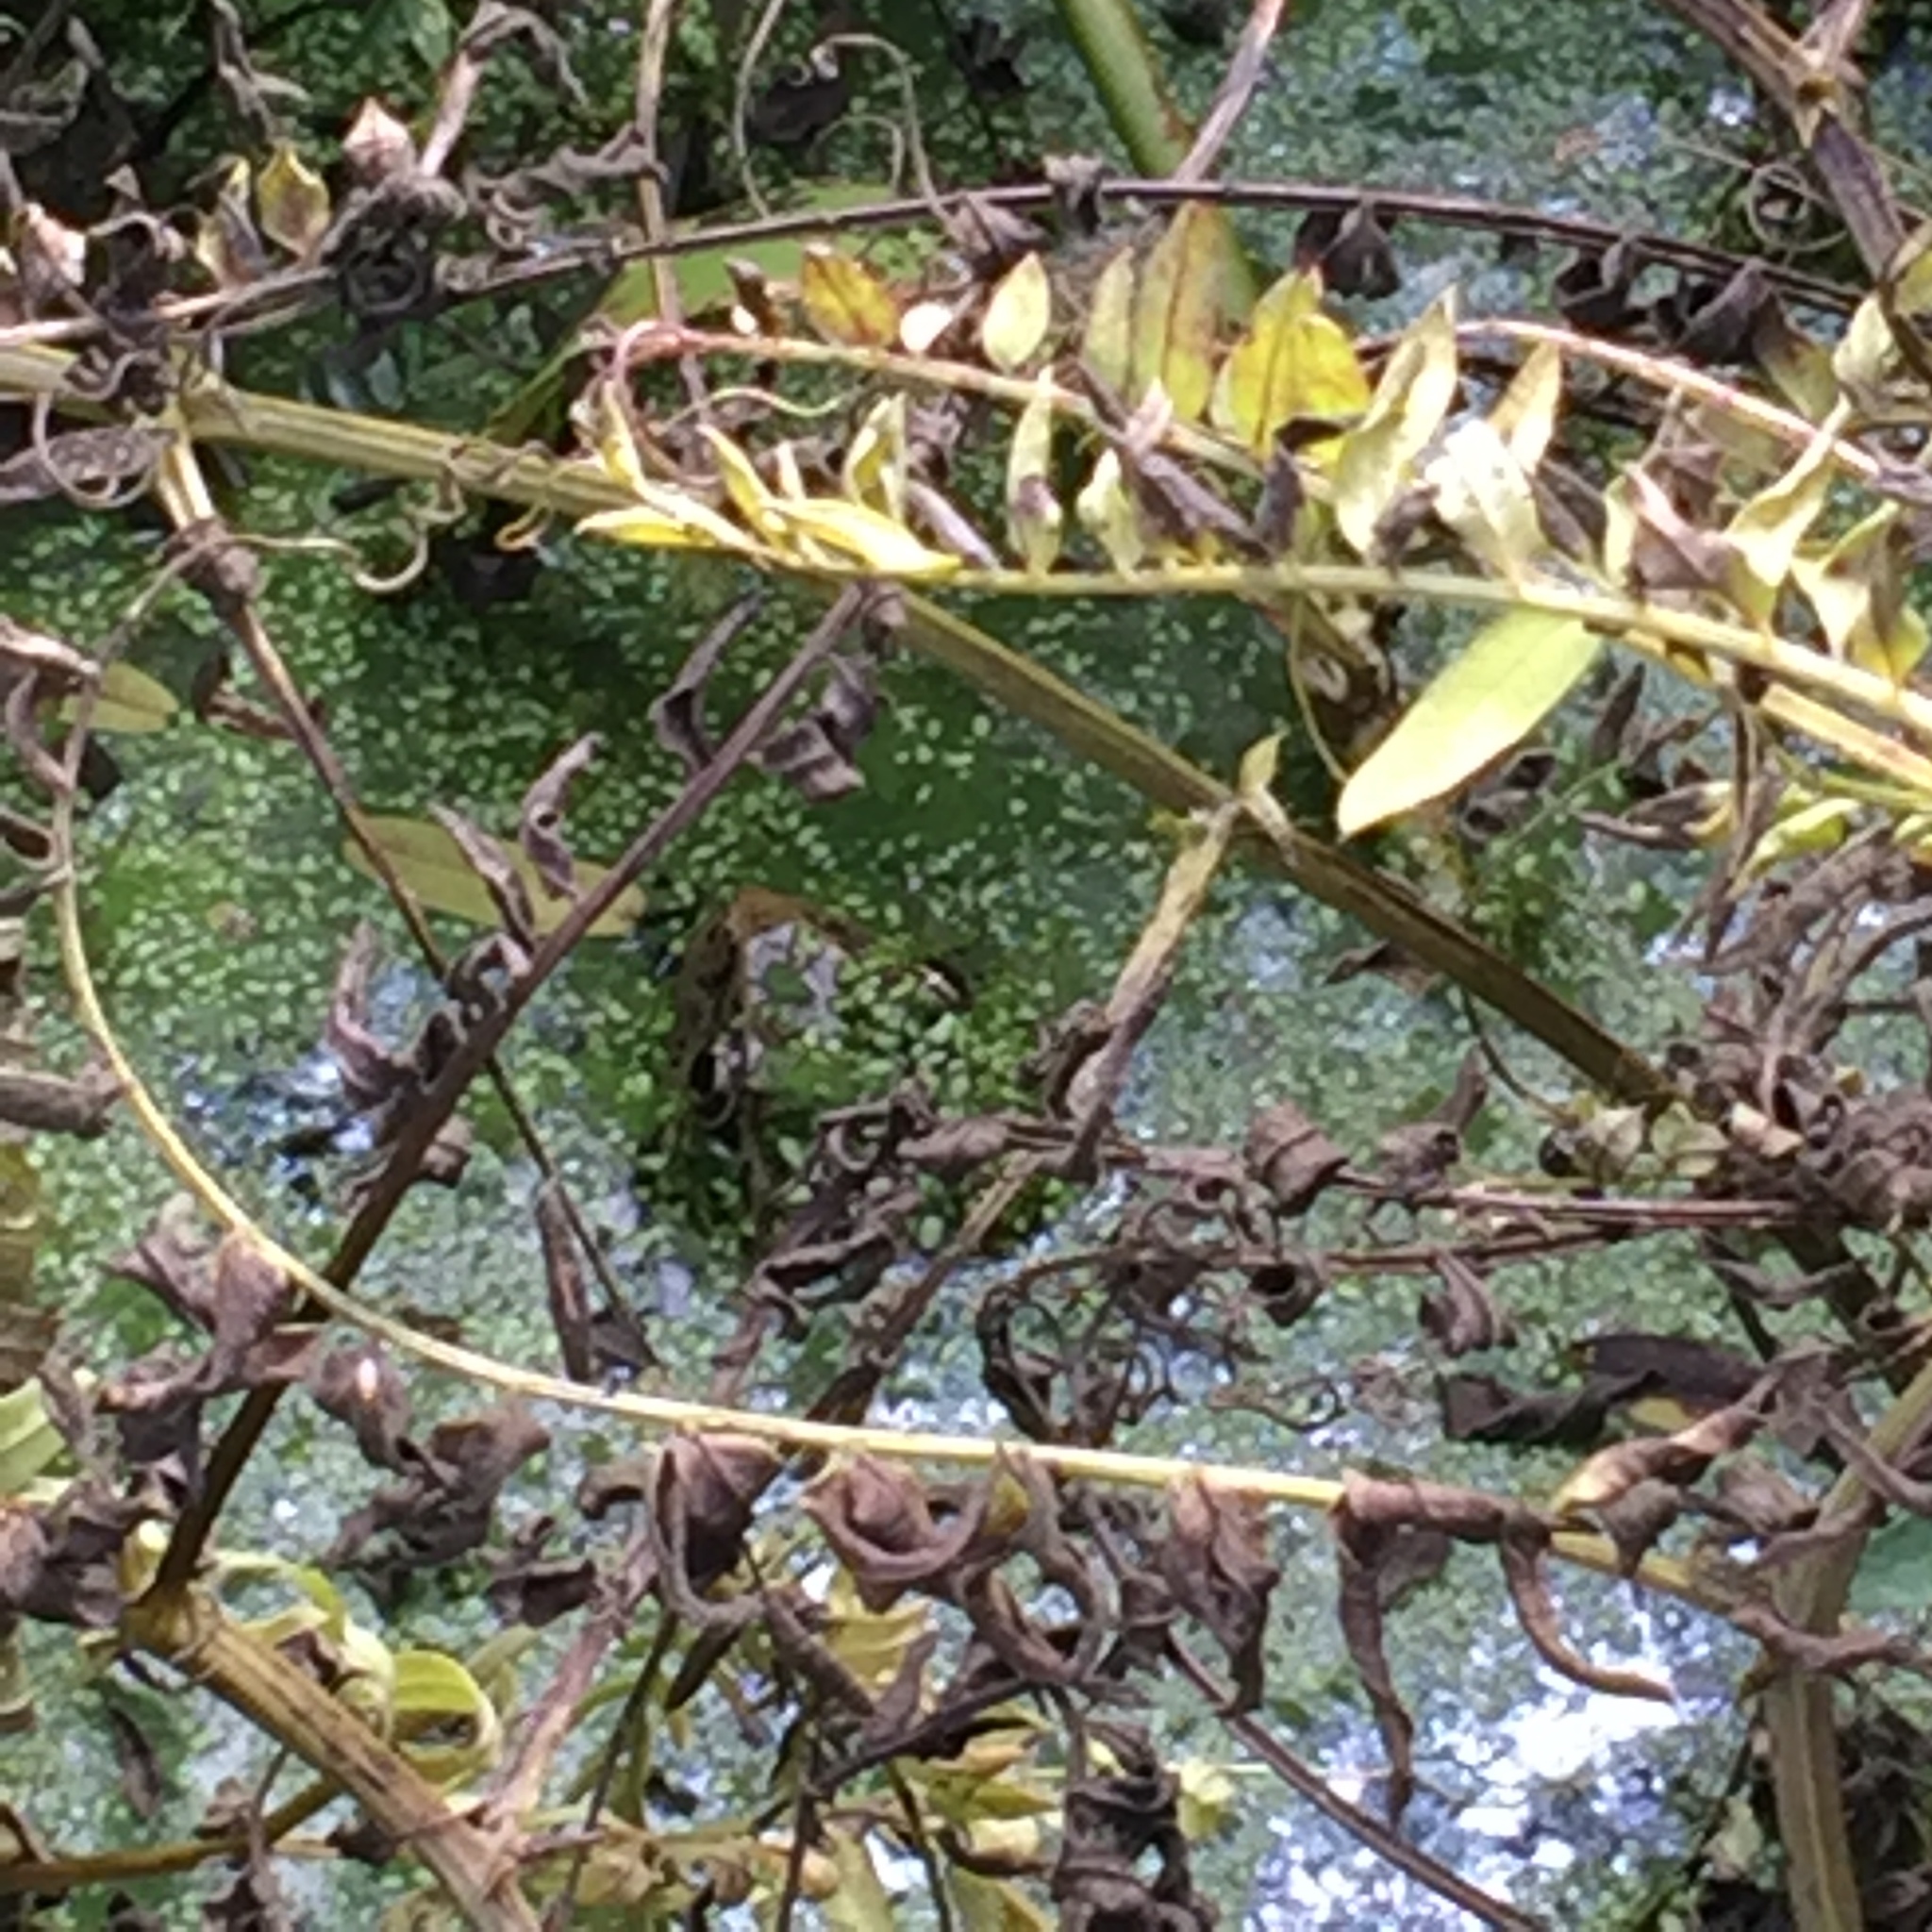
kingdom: Animalia
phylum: Chordata
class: Amphibia
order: Anura
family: Ranidae
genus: Rana
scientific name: Rana draytonii
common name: California red-legged frog
